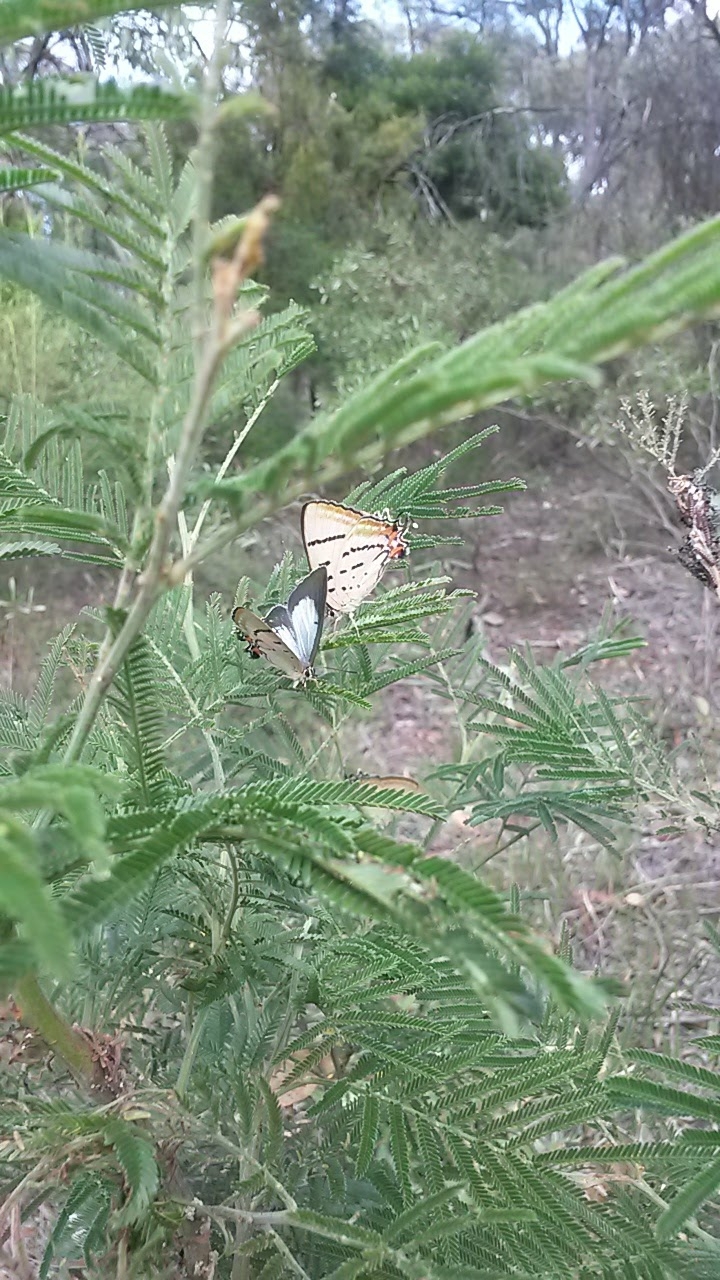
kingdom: Animalia
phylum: Arthropoda
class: Insecta
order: Lepidoptera
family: Lycaenidae
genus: Jalmenus
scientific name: Jalmenus evagoras
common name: Common imperial blue
